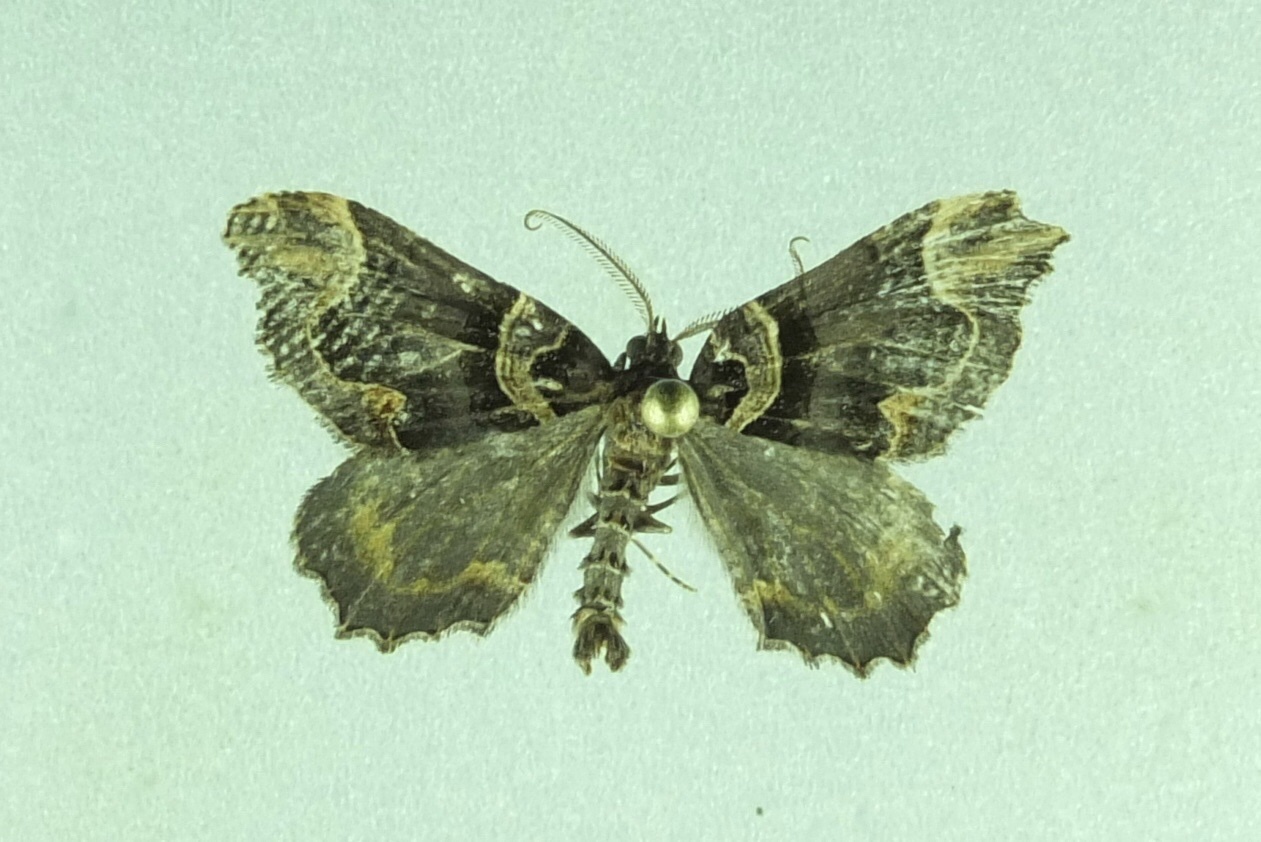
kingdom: Animalia
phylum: Arthropoda
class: Insecta
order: Lepidoptera
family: Geometridae
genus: Asaphodes
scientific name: Asaphodes chlamydota
